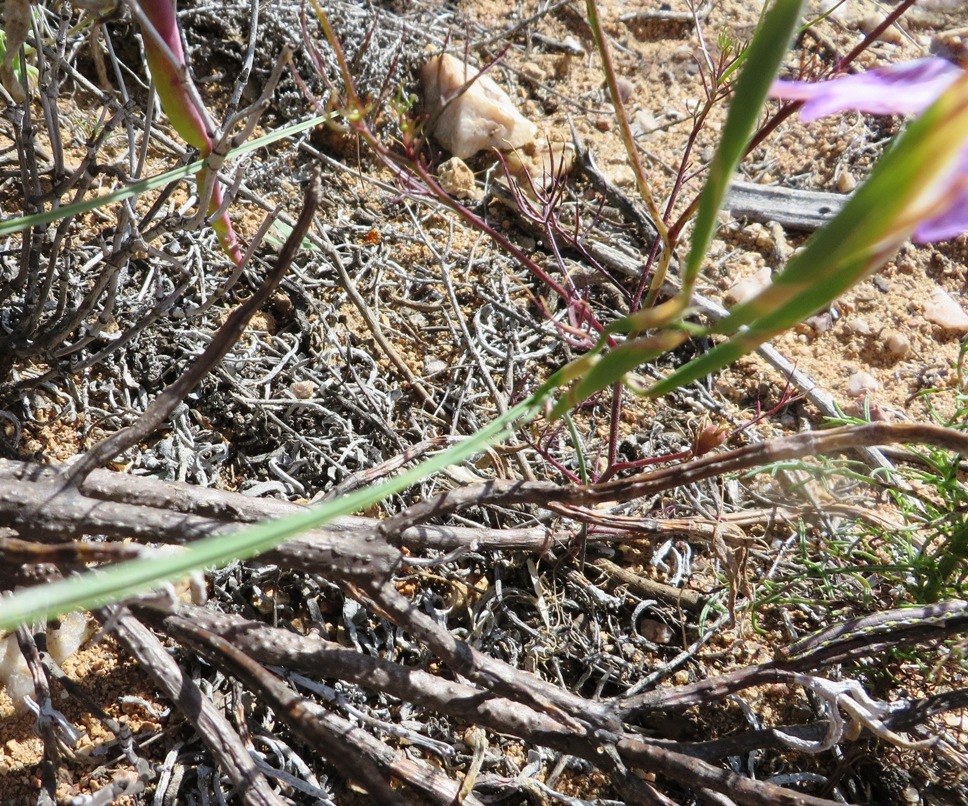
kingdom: Plantae
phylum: Tracheophyta
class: Liliopsida
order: Asparagales
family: Iridaceae
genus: Moraea
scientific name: Moraea fugax
